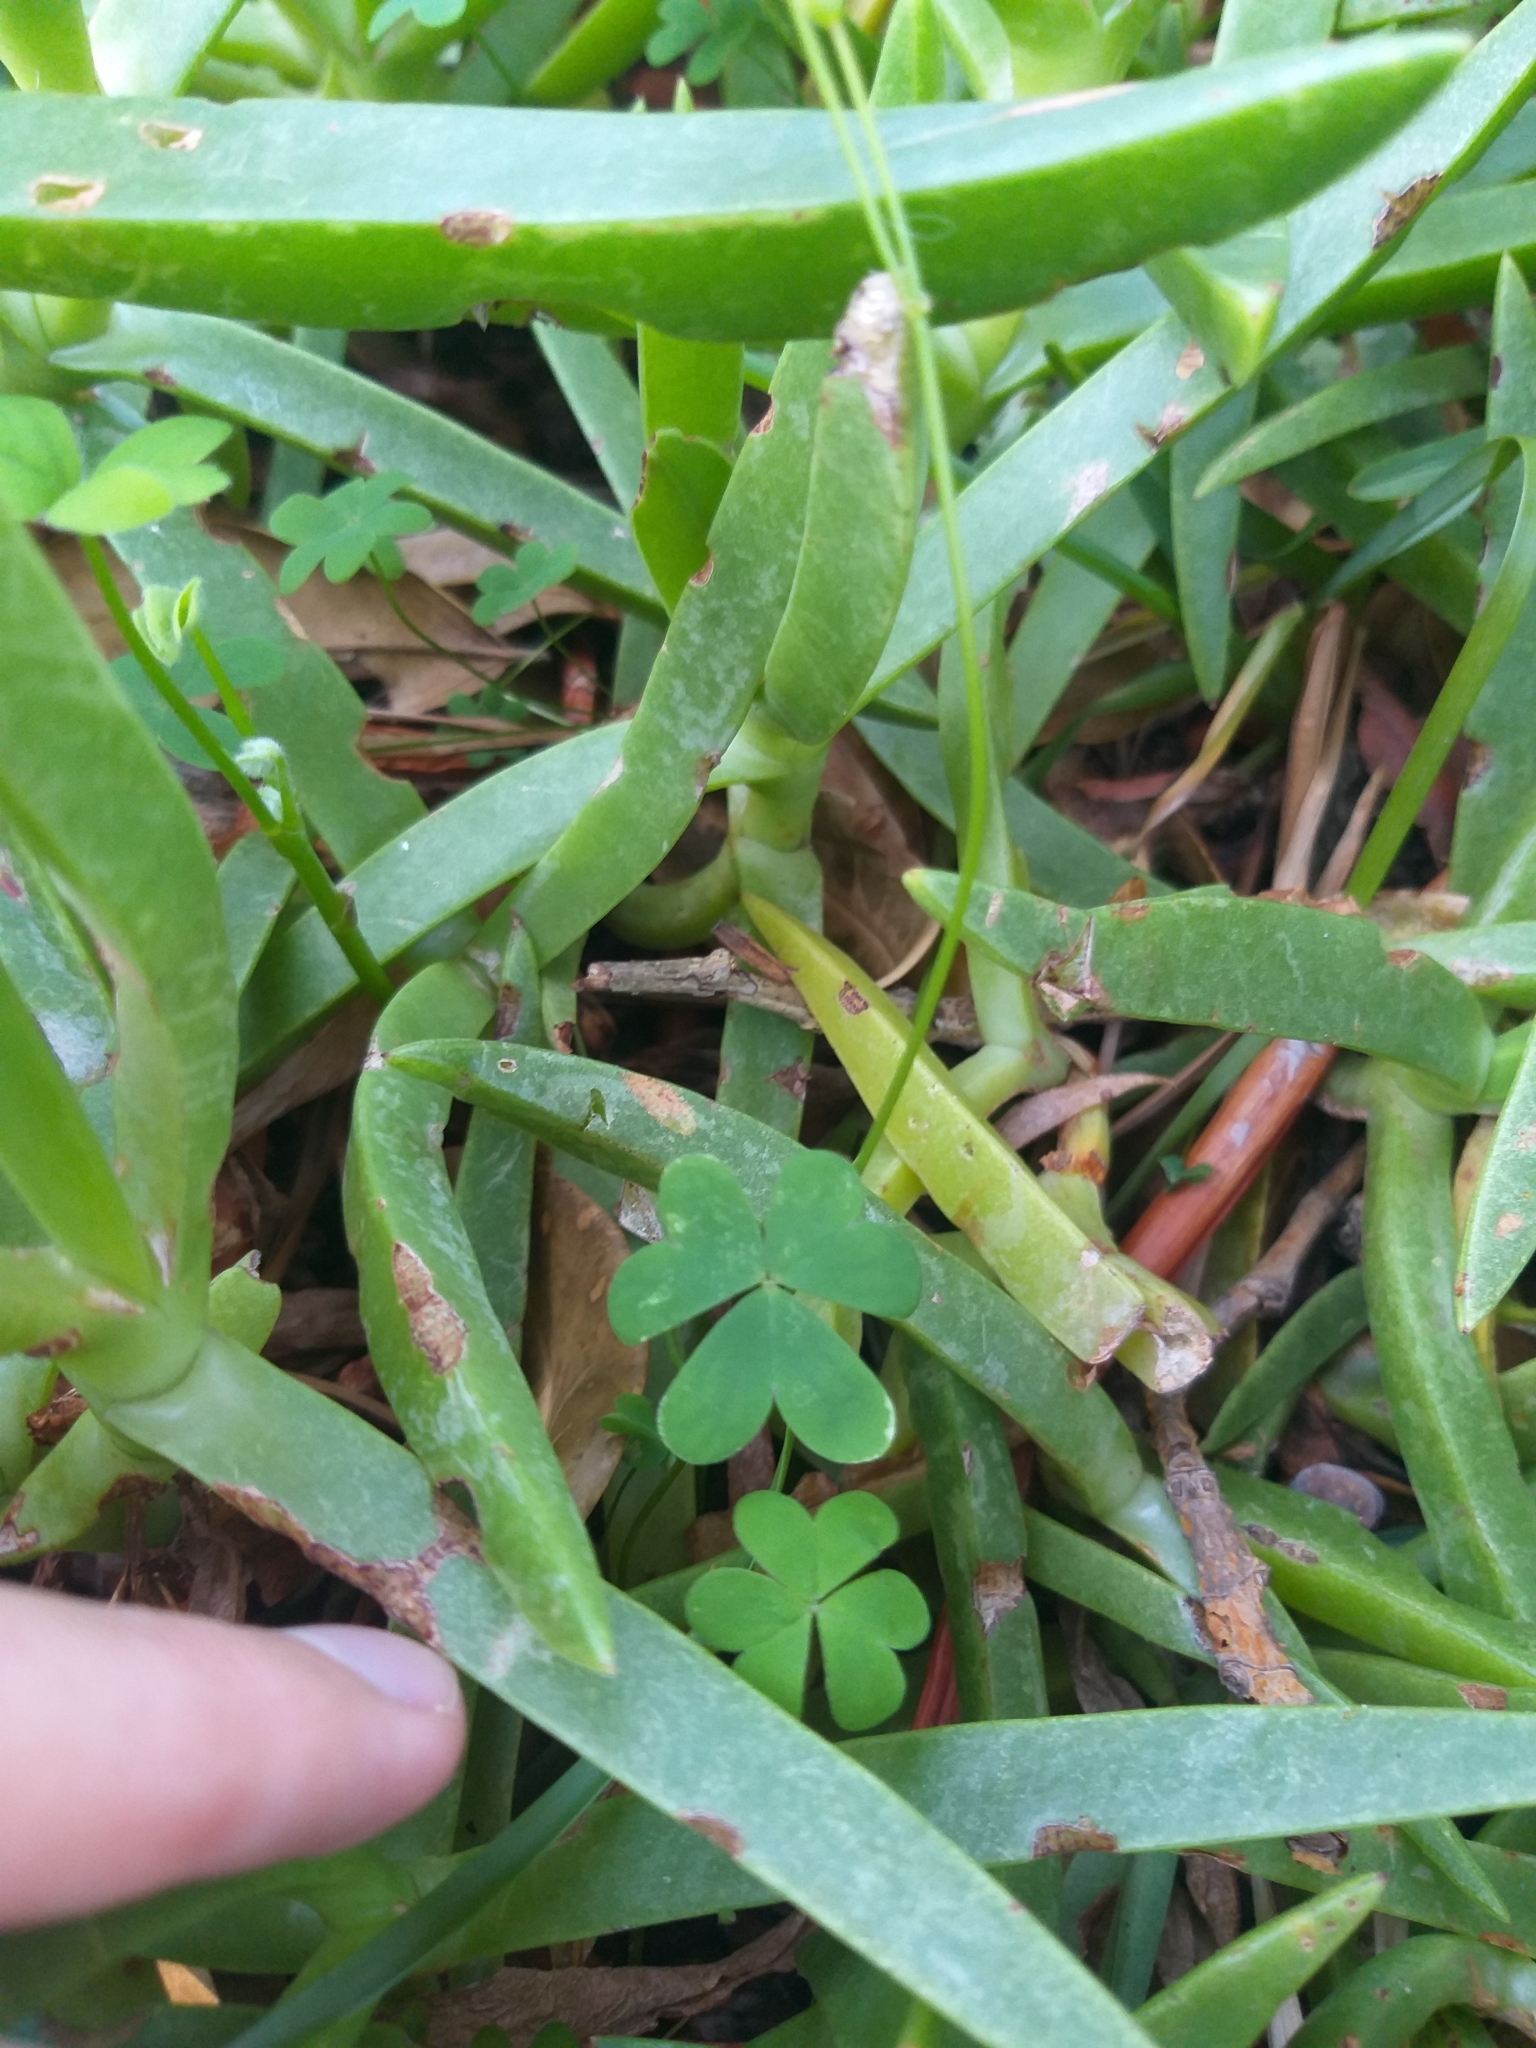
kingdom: Plantae
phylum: Tracheophyta
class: Magnoliopsida
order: Oxalidales
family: Oxalidaceae
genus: Oxalis
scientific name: Oxalis caprina
